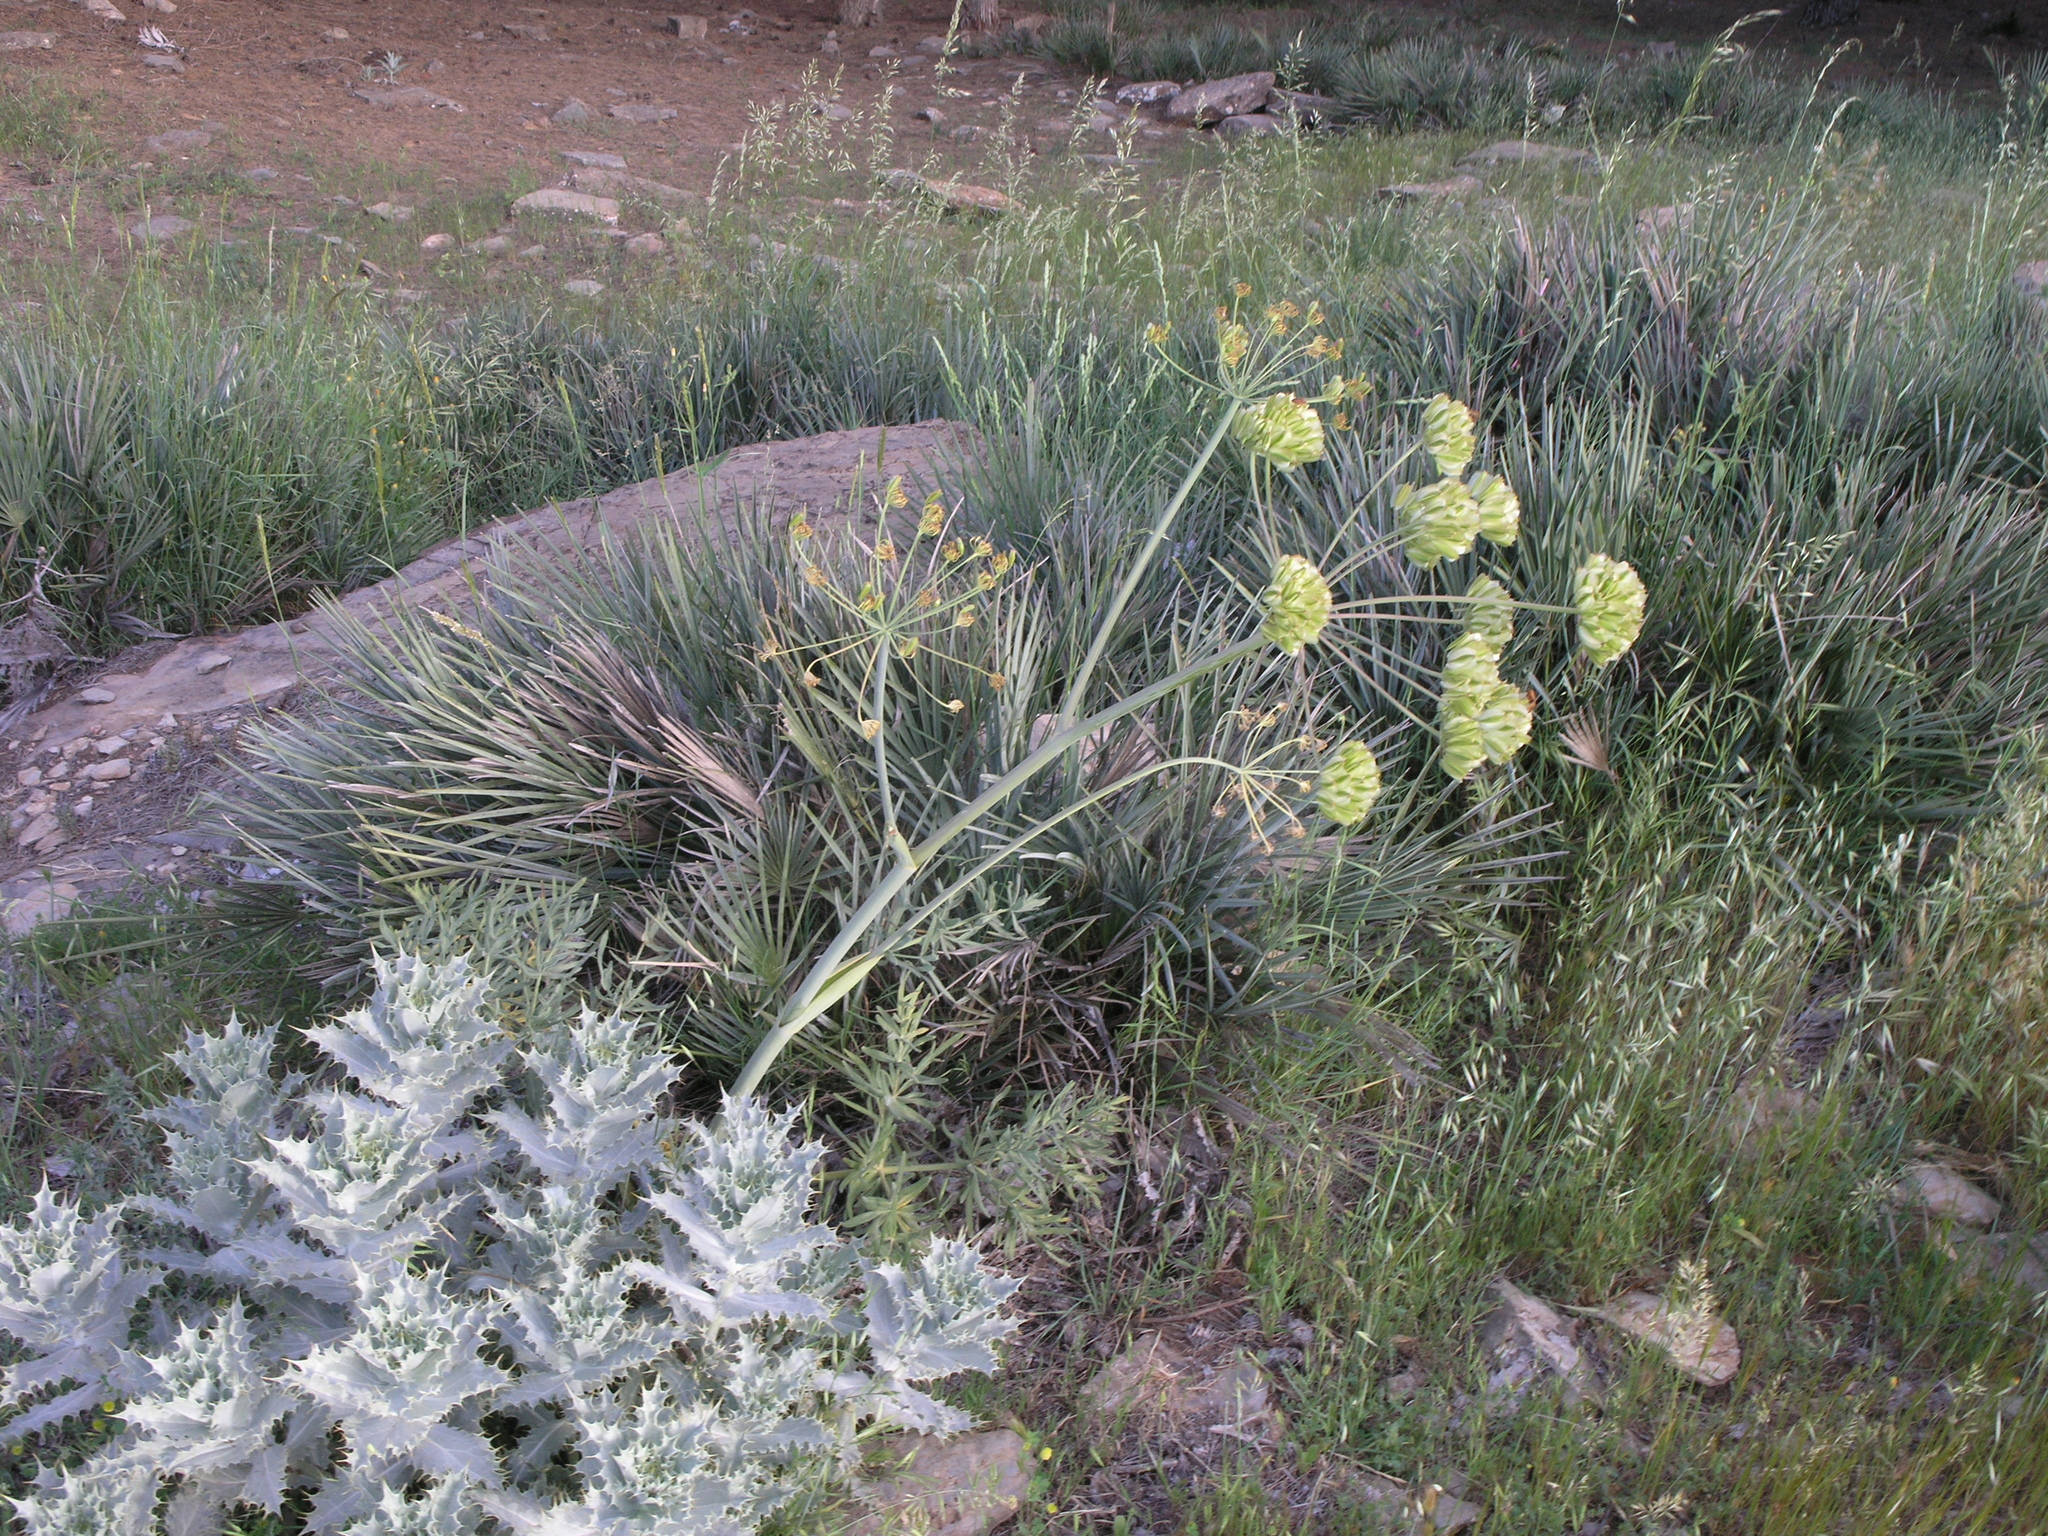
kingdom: Plantae
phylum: Tracheophyta
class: Magnoliopsida
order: Apiales
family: Apiaceae
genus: Thapsia
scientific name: Thapsia transtagana
